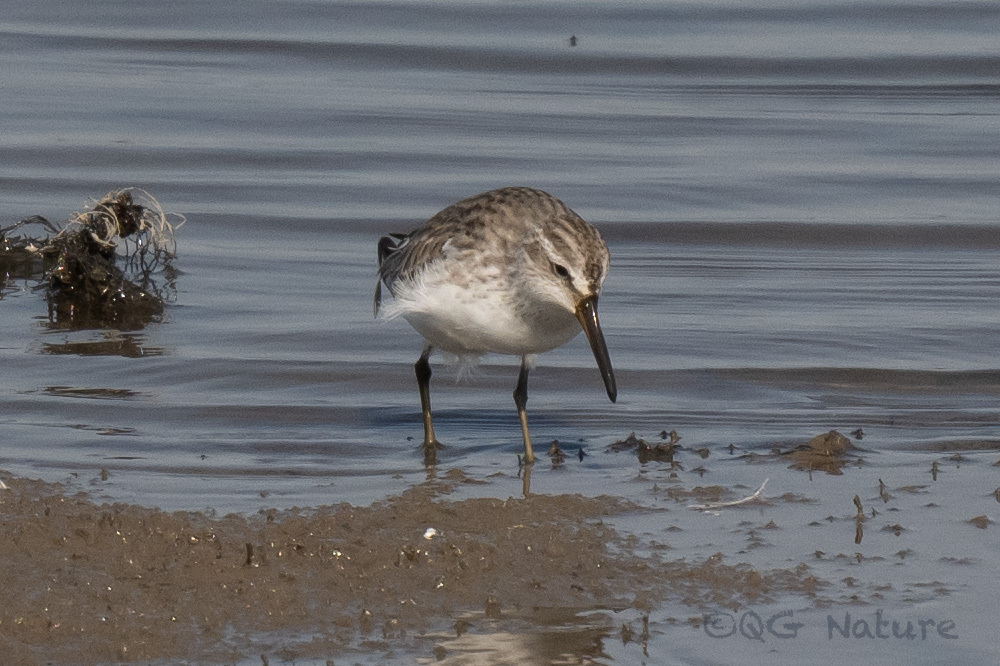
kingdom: Animalia
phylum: Chordata
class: Aves
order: Charadriiformes
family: Scolopacidae
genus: Calidris
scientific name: Calidris falcinellus
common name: Broad-billed sandpiper
